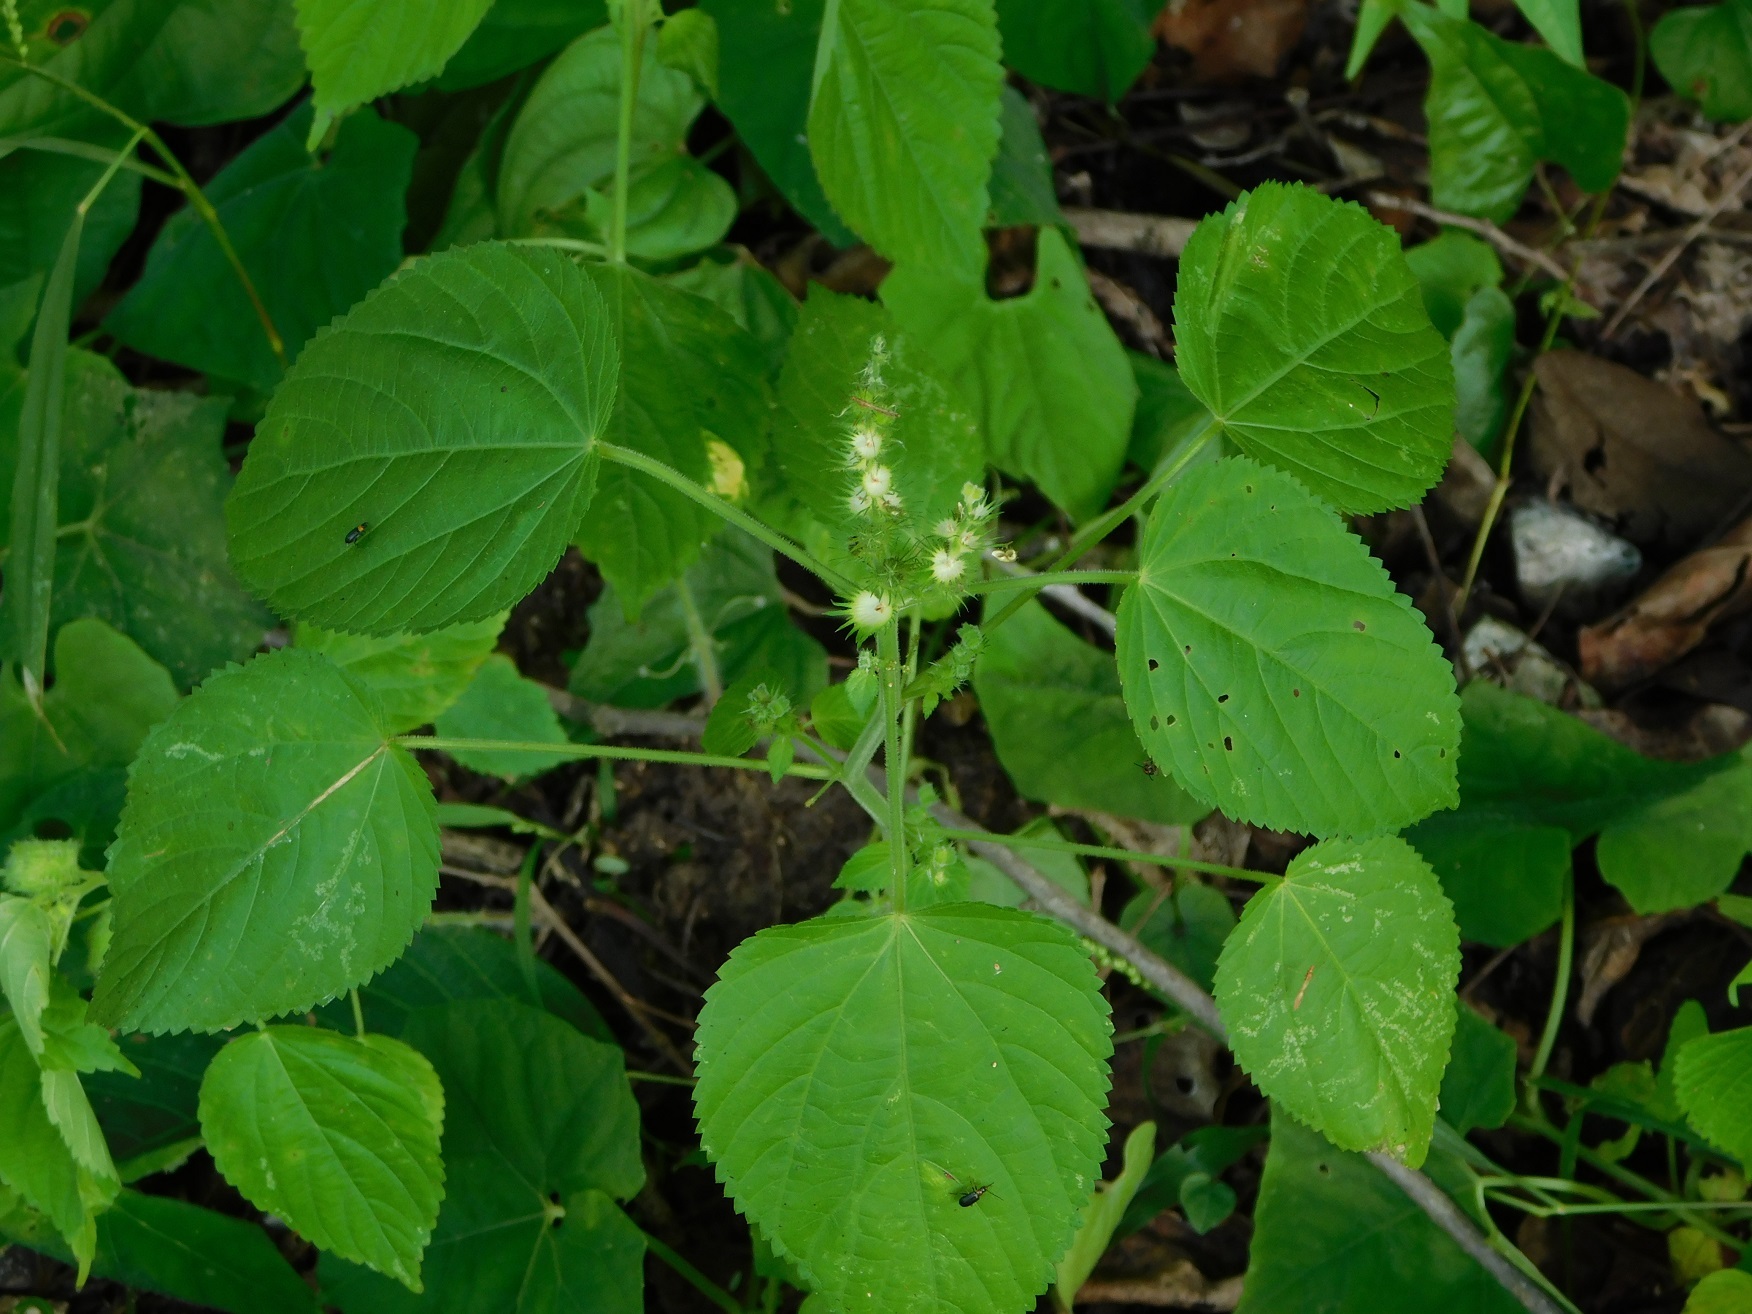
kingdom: Plantae
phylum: Tracheophyta
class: Magnoliopsida
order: Malpighiales
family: Euphorbiaceae
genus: Acalypha
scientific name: Acalypha macrostachyoides
